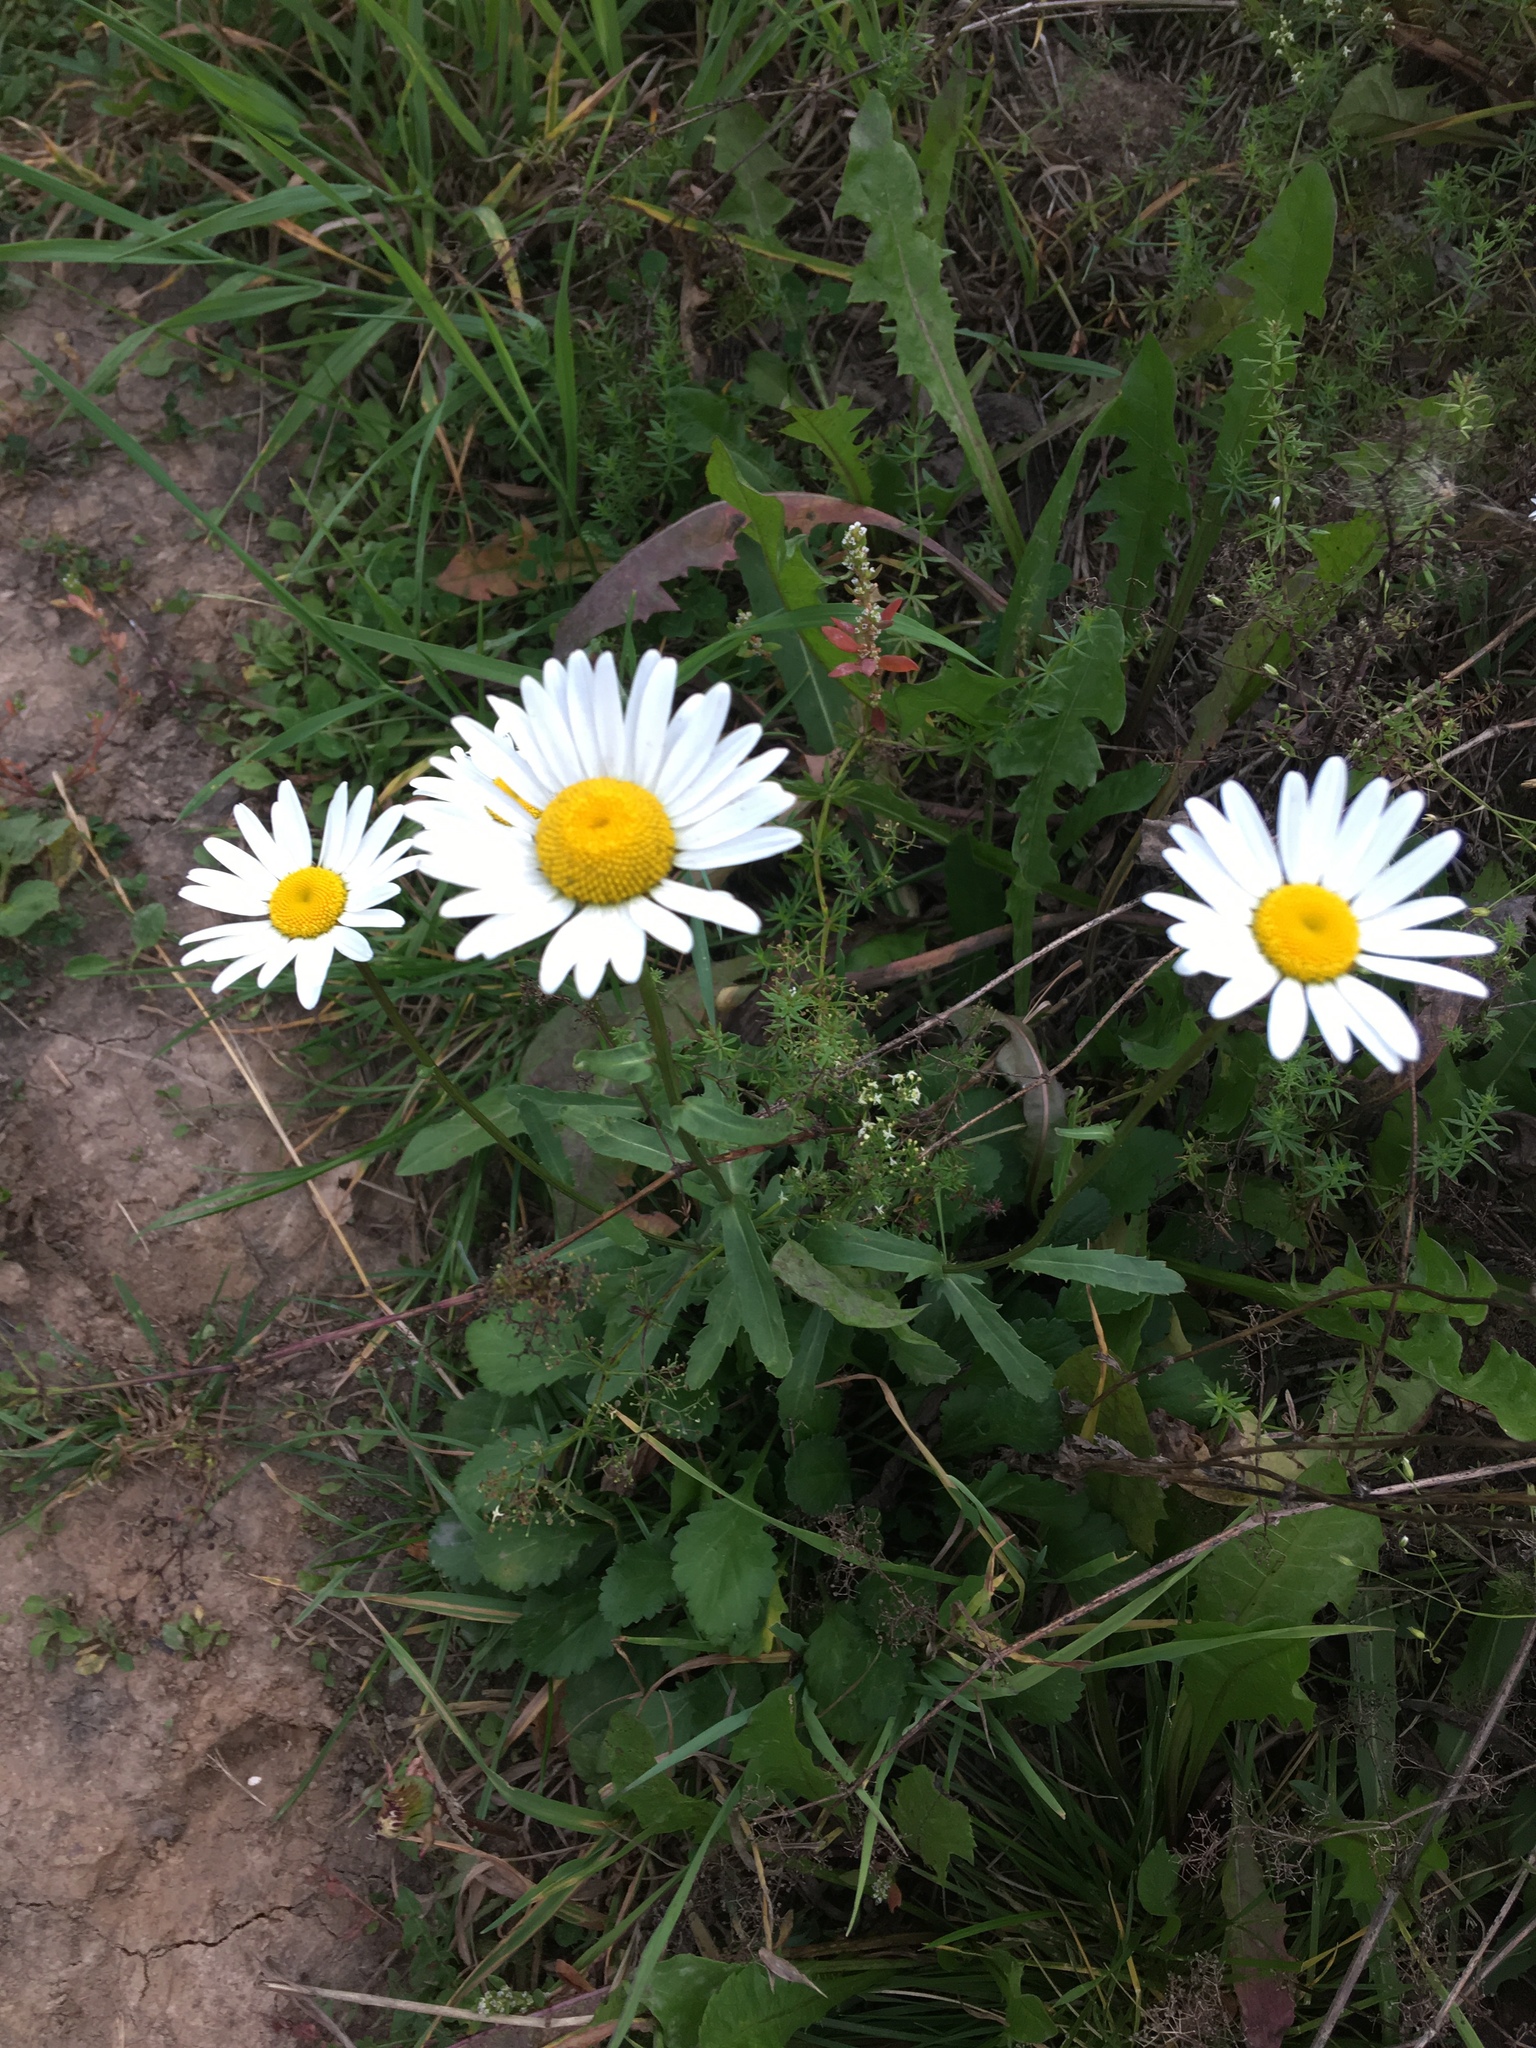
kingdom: Plantae
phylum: Tracheophyta
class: Magnoliopsida
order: Asterales
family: Asteraceae
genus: Leucanthemum
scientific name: Leucanthemum vulgare
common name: Oxeye daisy
